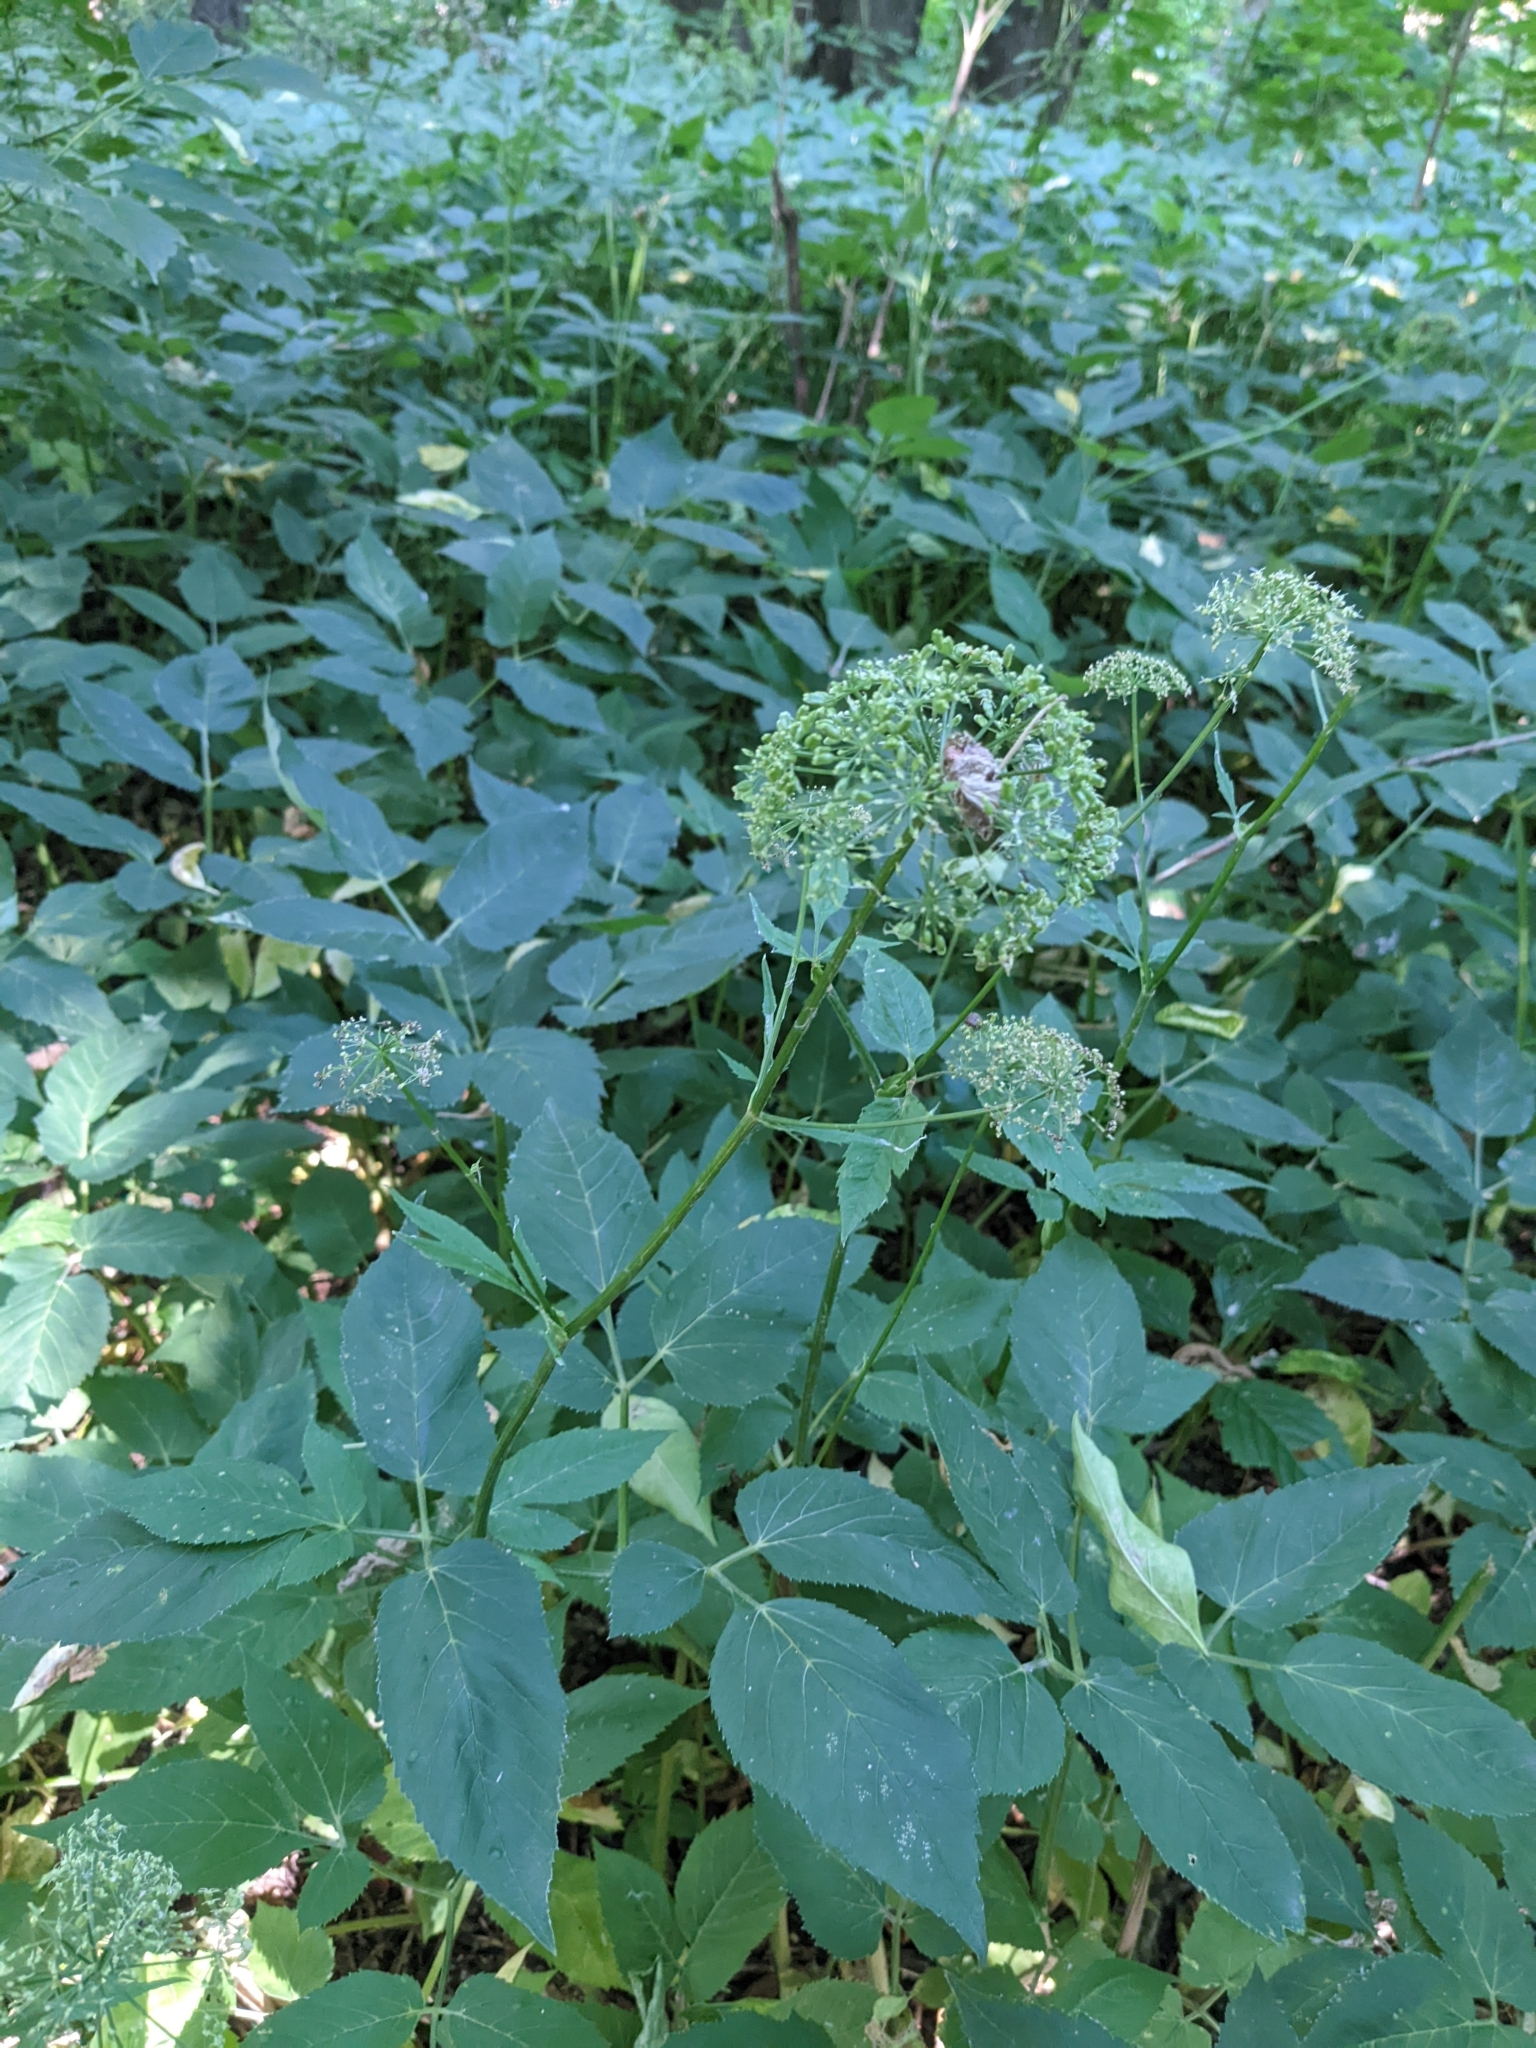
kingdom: Plantae
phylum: Tracheophyta
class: Magnoliopsida
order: Apiales
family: Apiaceae
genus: Aegopodium
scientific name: Aegopodium podagraria
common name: Ground-elder
